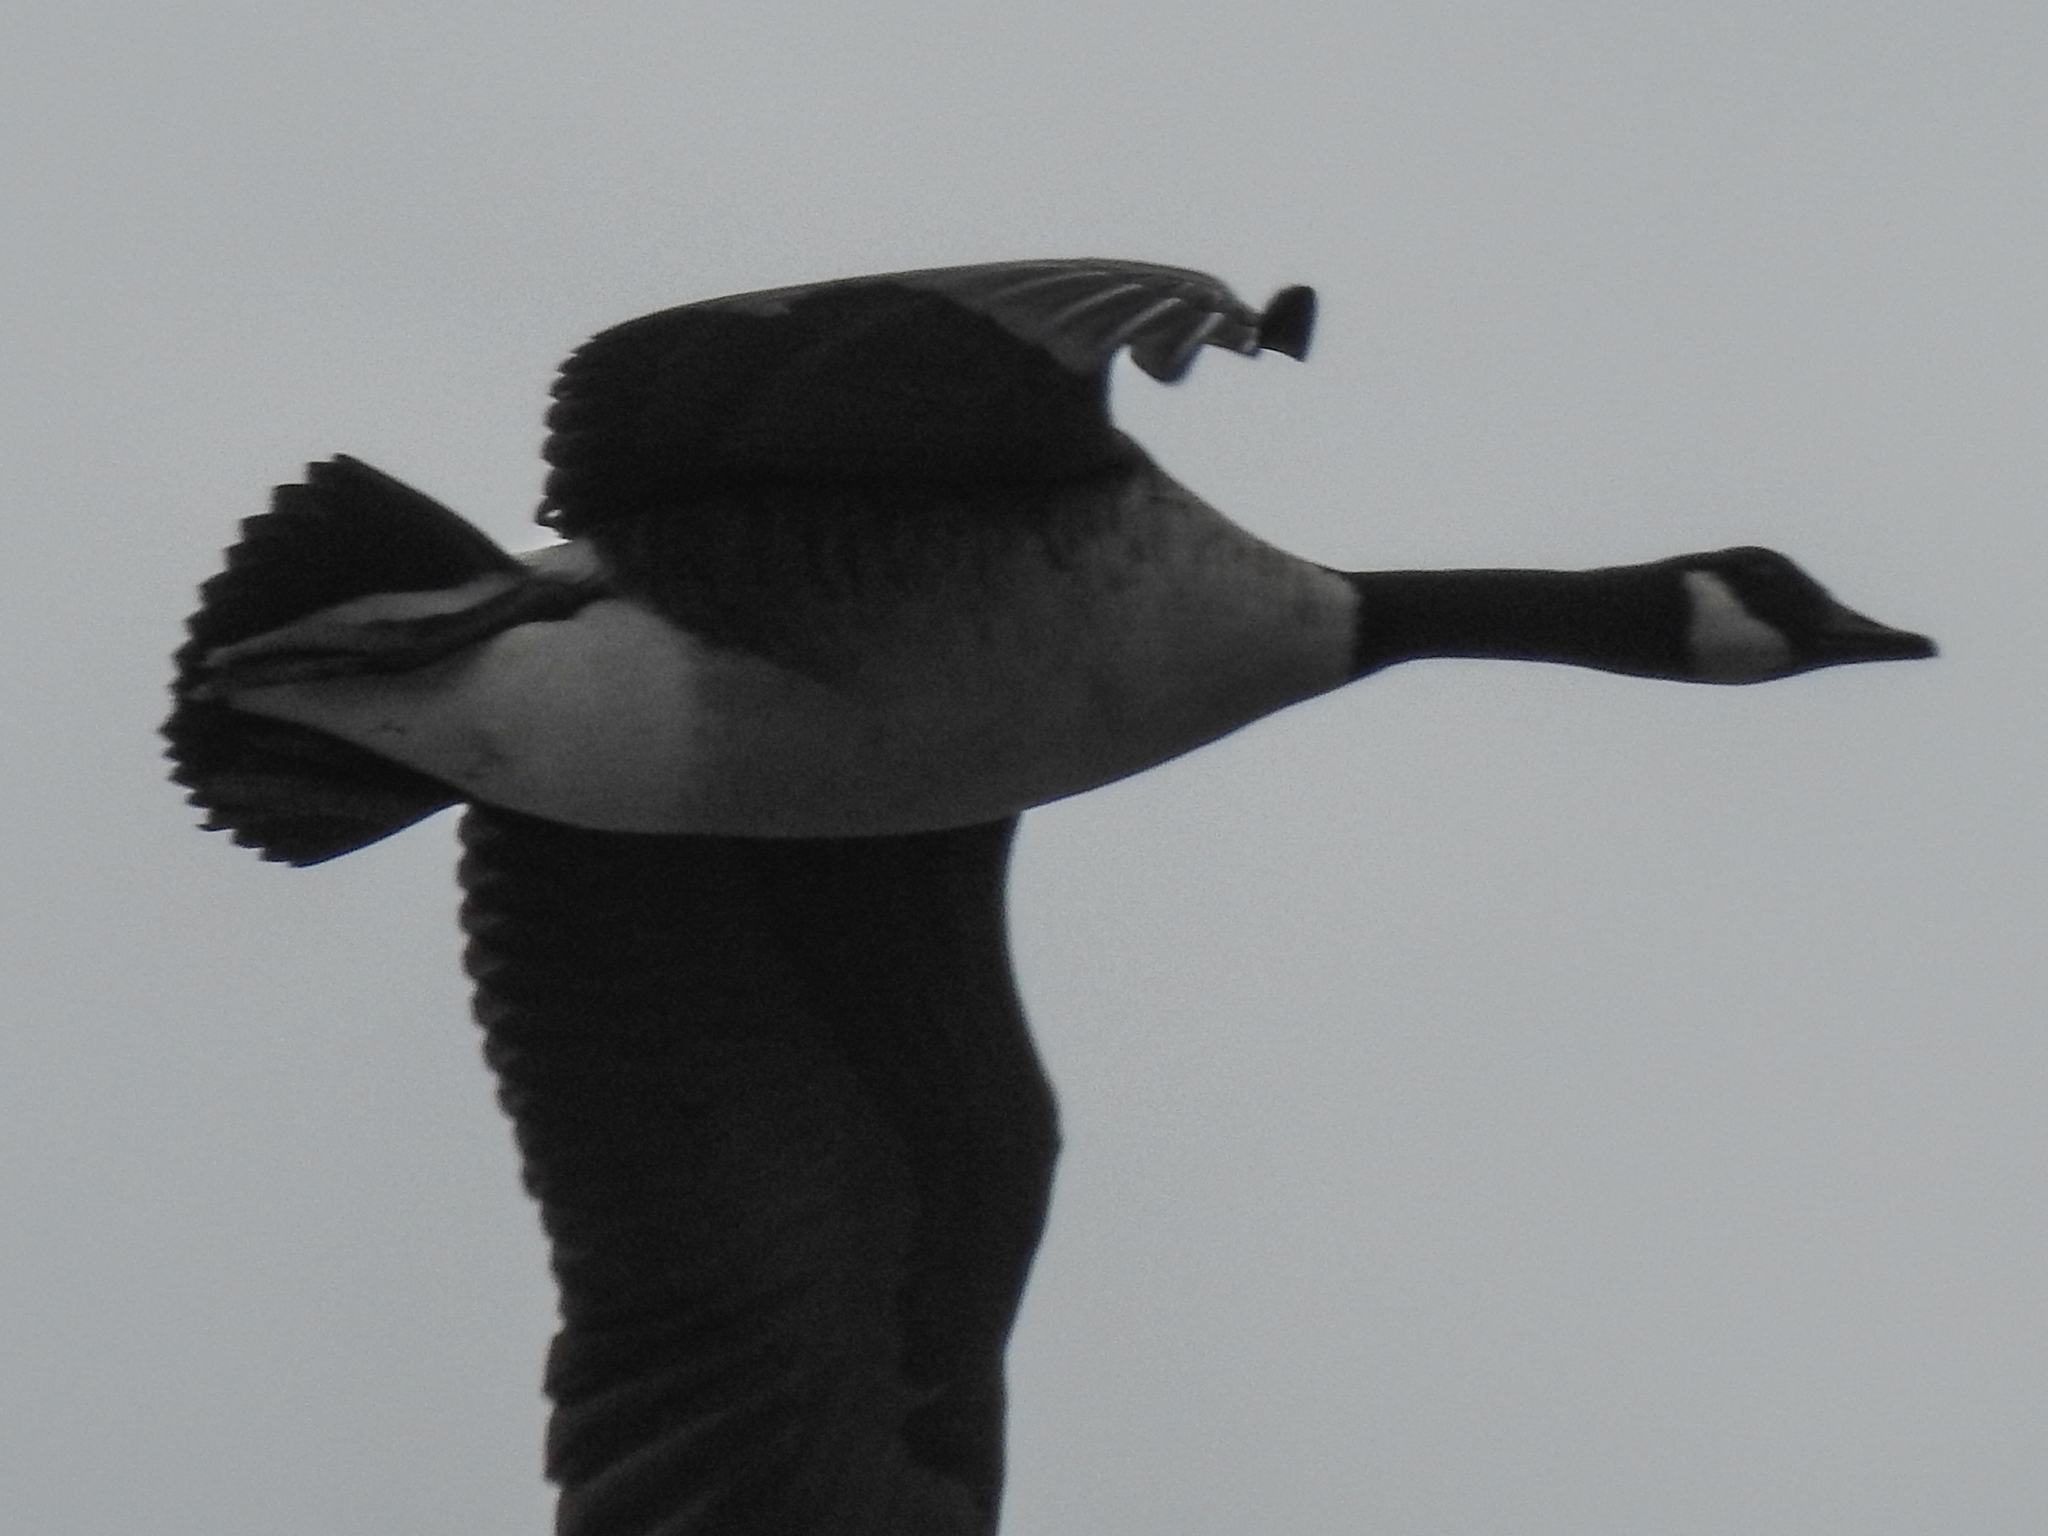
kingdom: Animalia
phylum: Chordata
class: Aves
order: Anseriformes
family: Anatidae
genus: Branta
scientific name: Branta canadensis
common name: Canada goose
